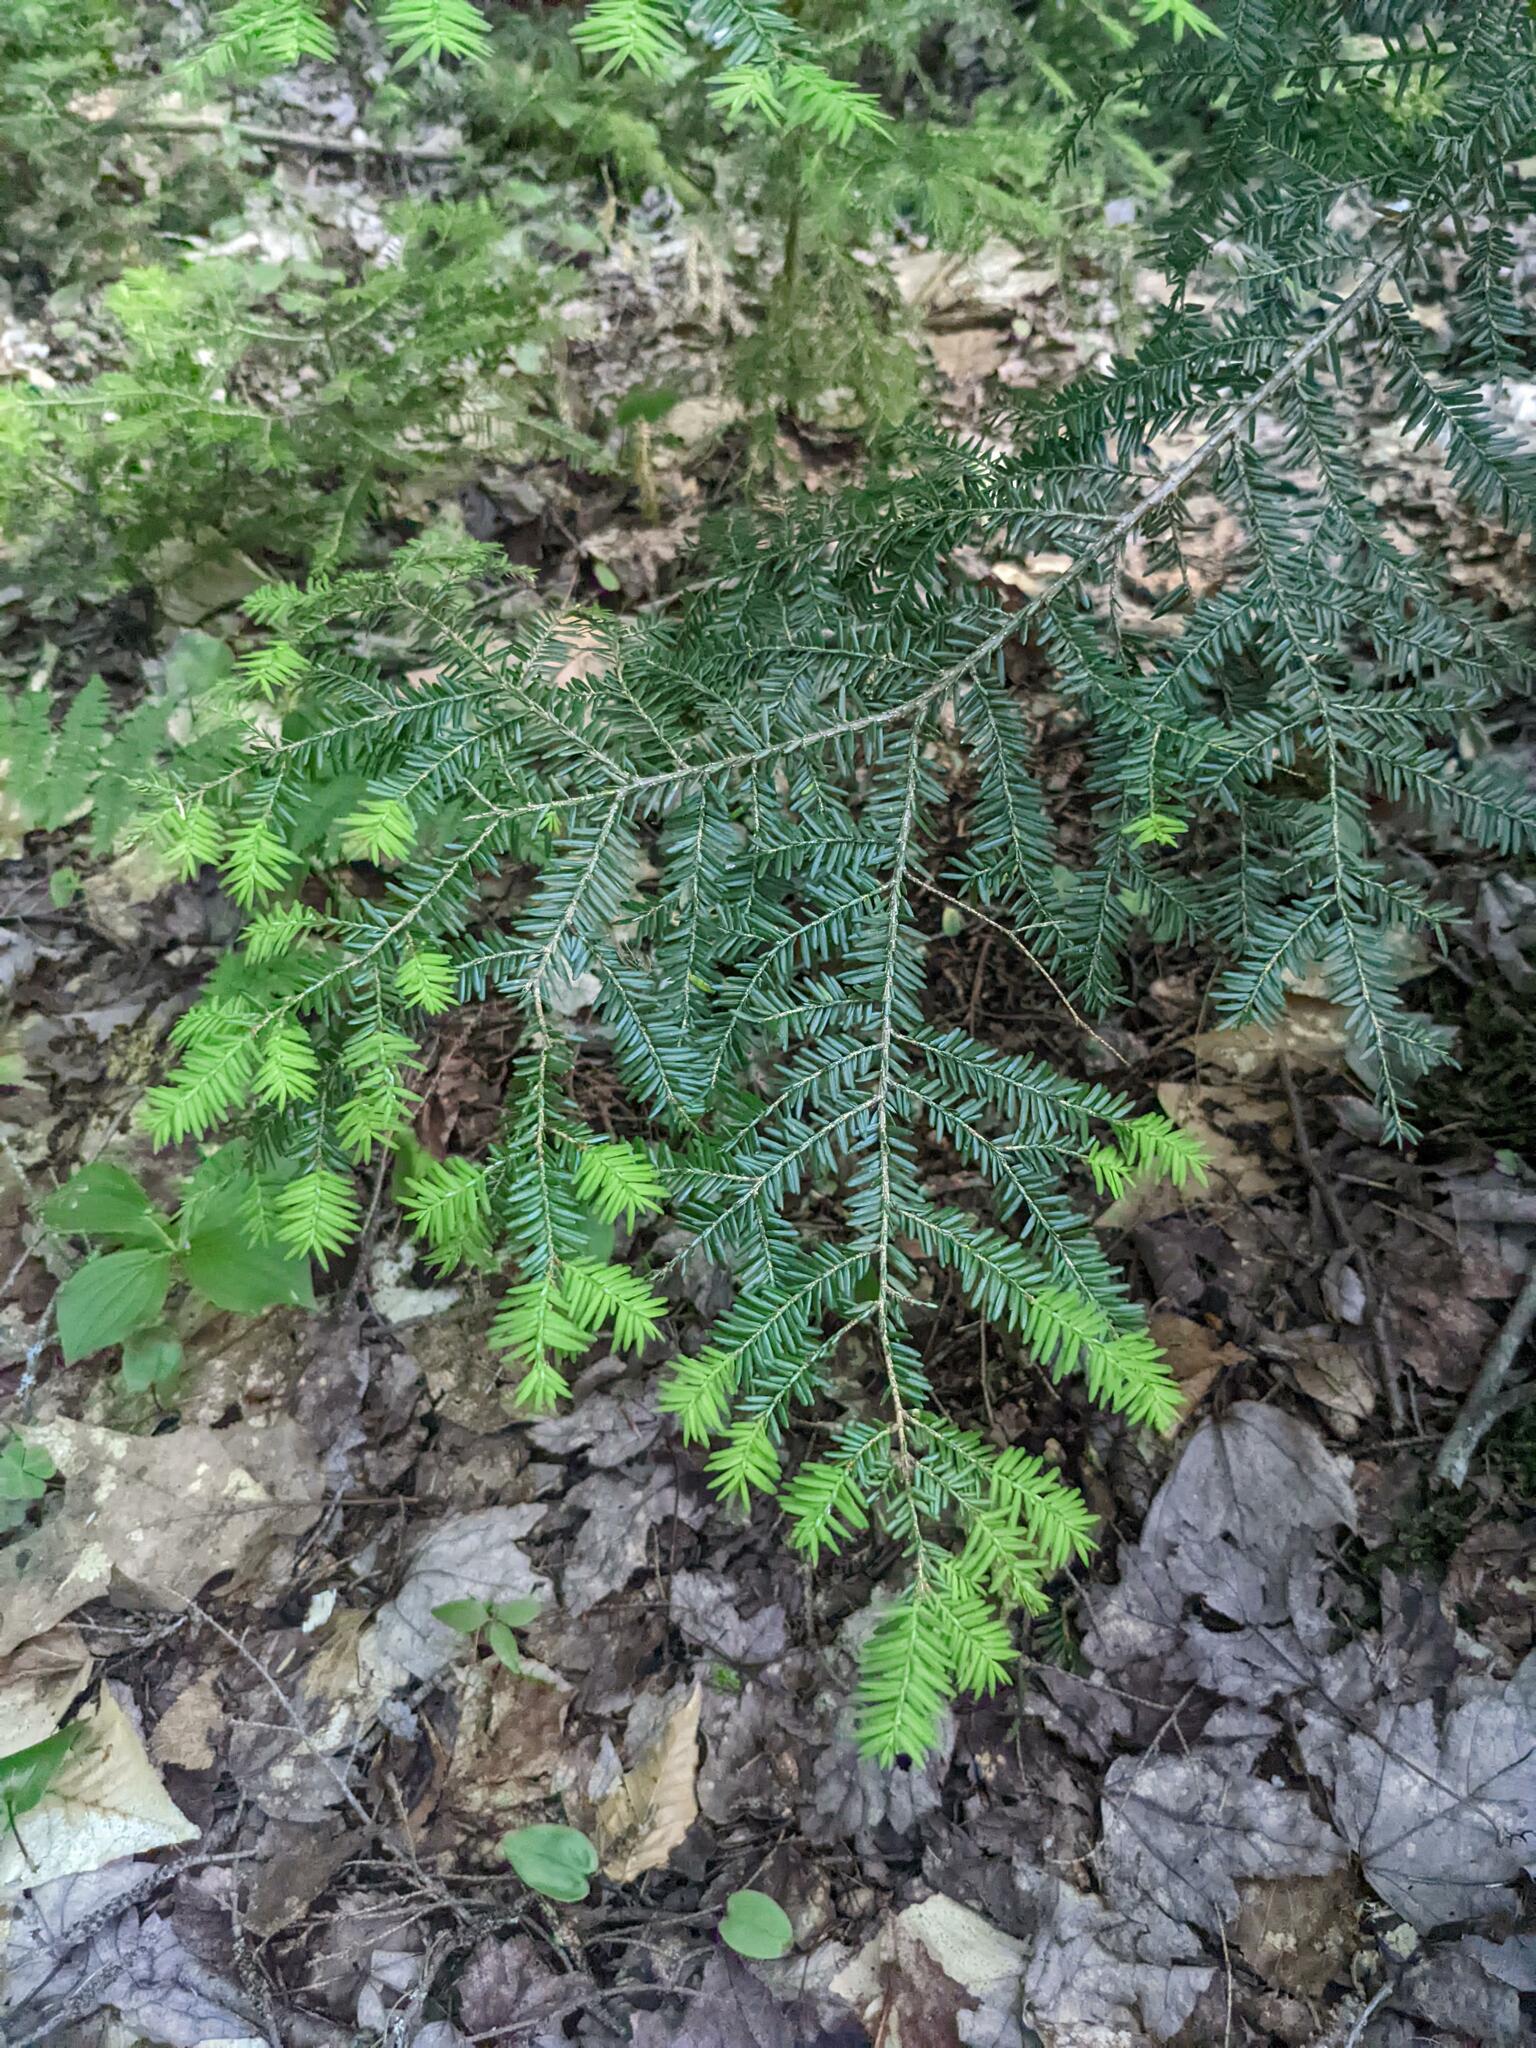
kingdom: Plantae
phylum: Tracheophyta
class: Pinopsida
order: Pinales
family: Pinaceae
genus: Tsuga
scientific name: Tsuga canadensis
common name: Eastern hemlock
